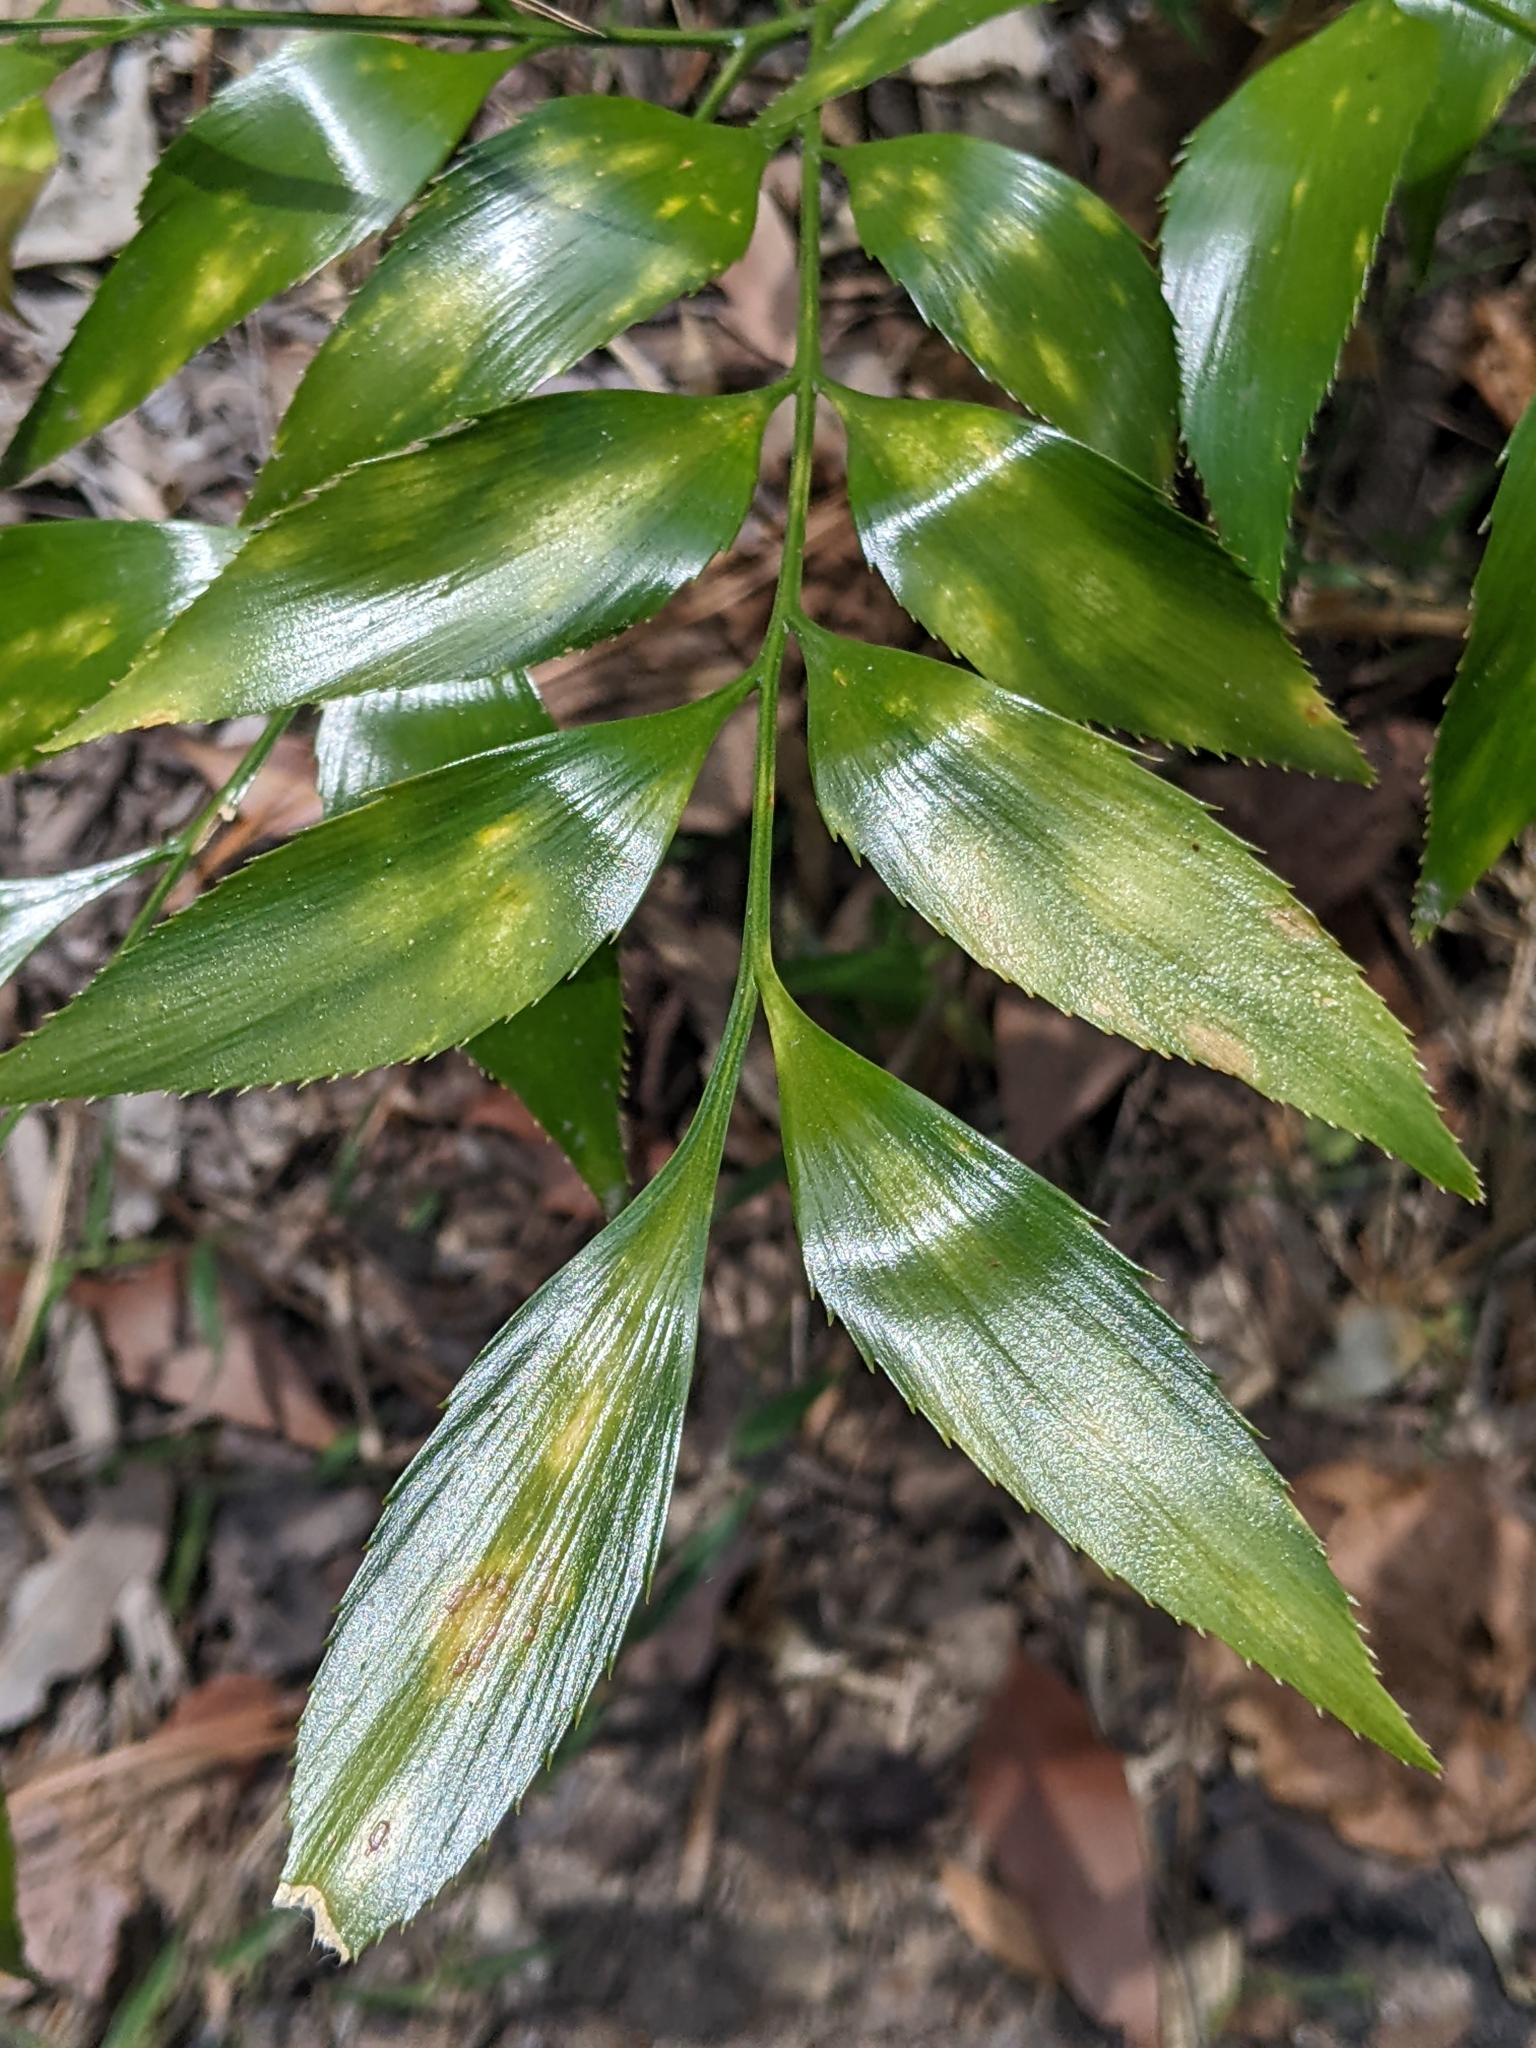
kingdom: Plantae
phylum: Tracheophyta
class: Cycadopsida
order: Cycadales
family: Zamiaceae
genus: Bowenia
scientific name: Bowenia serrulata
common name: Byfield fern
